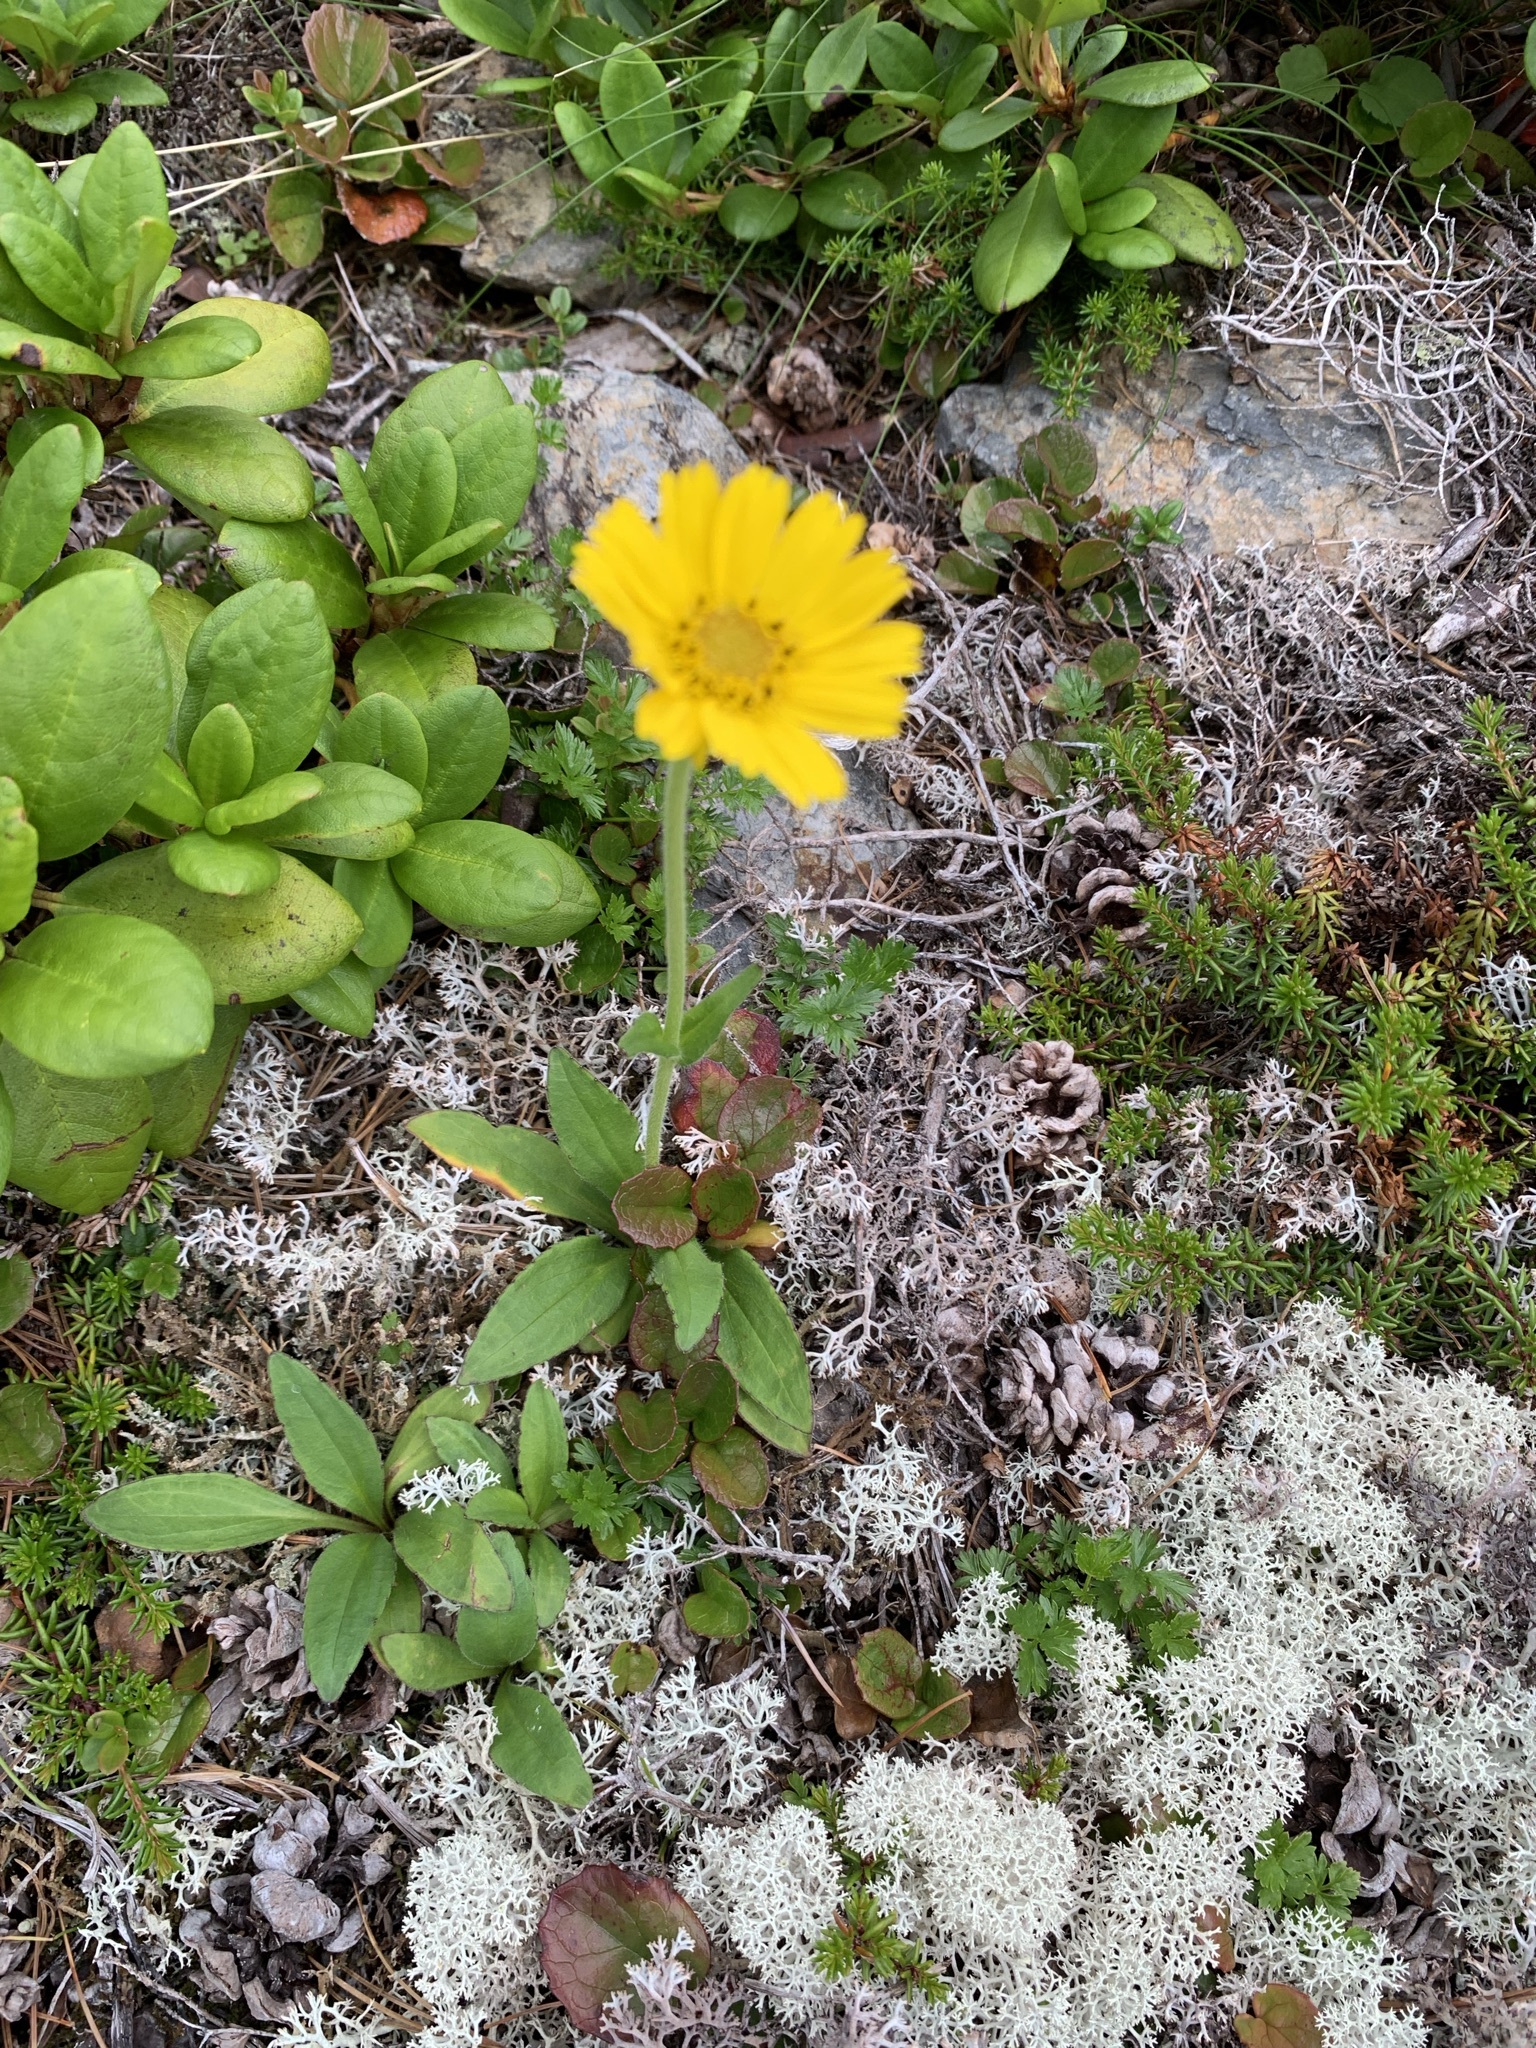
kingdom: Plantae
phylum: Tracheophyta
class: Magnoliopsida
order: Asterales
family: Asteraceae
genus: Arnica
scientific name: Arnica unalascensis
